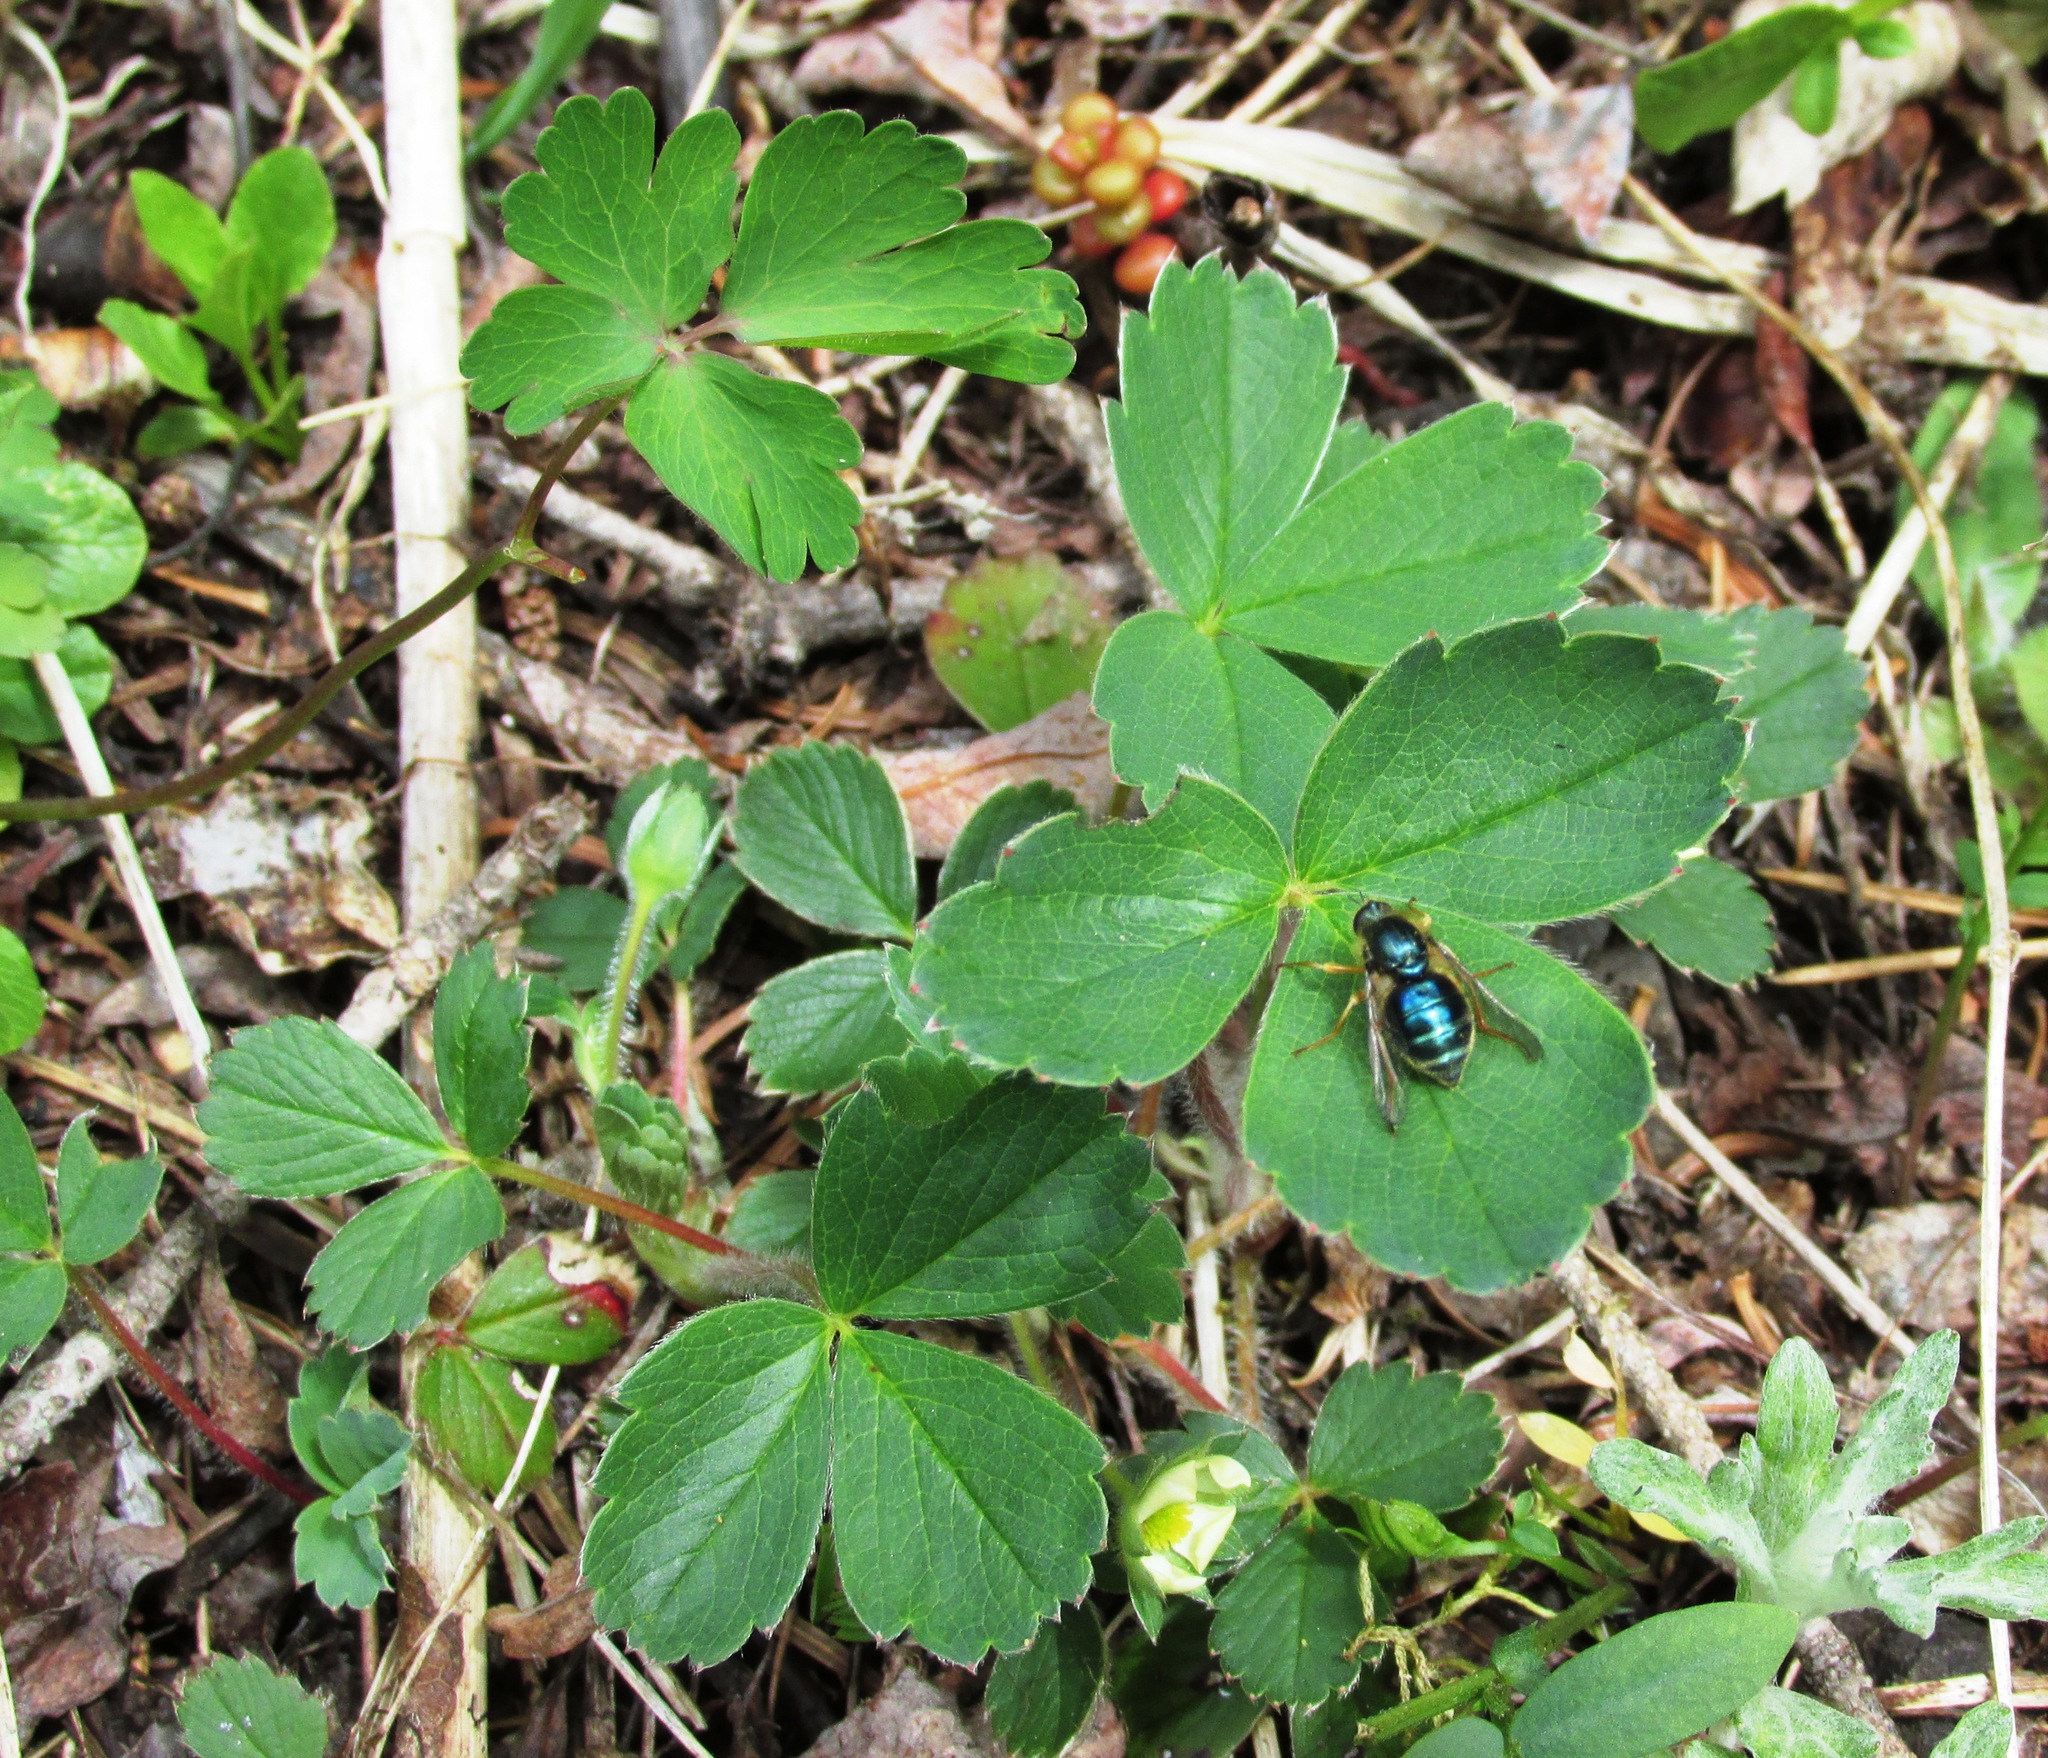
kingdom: Animalia
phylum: Arthropoda
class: Insecta
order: Diptera
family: Acroceridae
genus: Eulonchus
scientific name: Eulonchus sapphirinus
